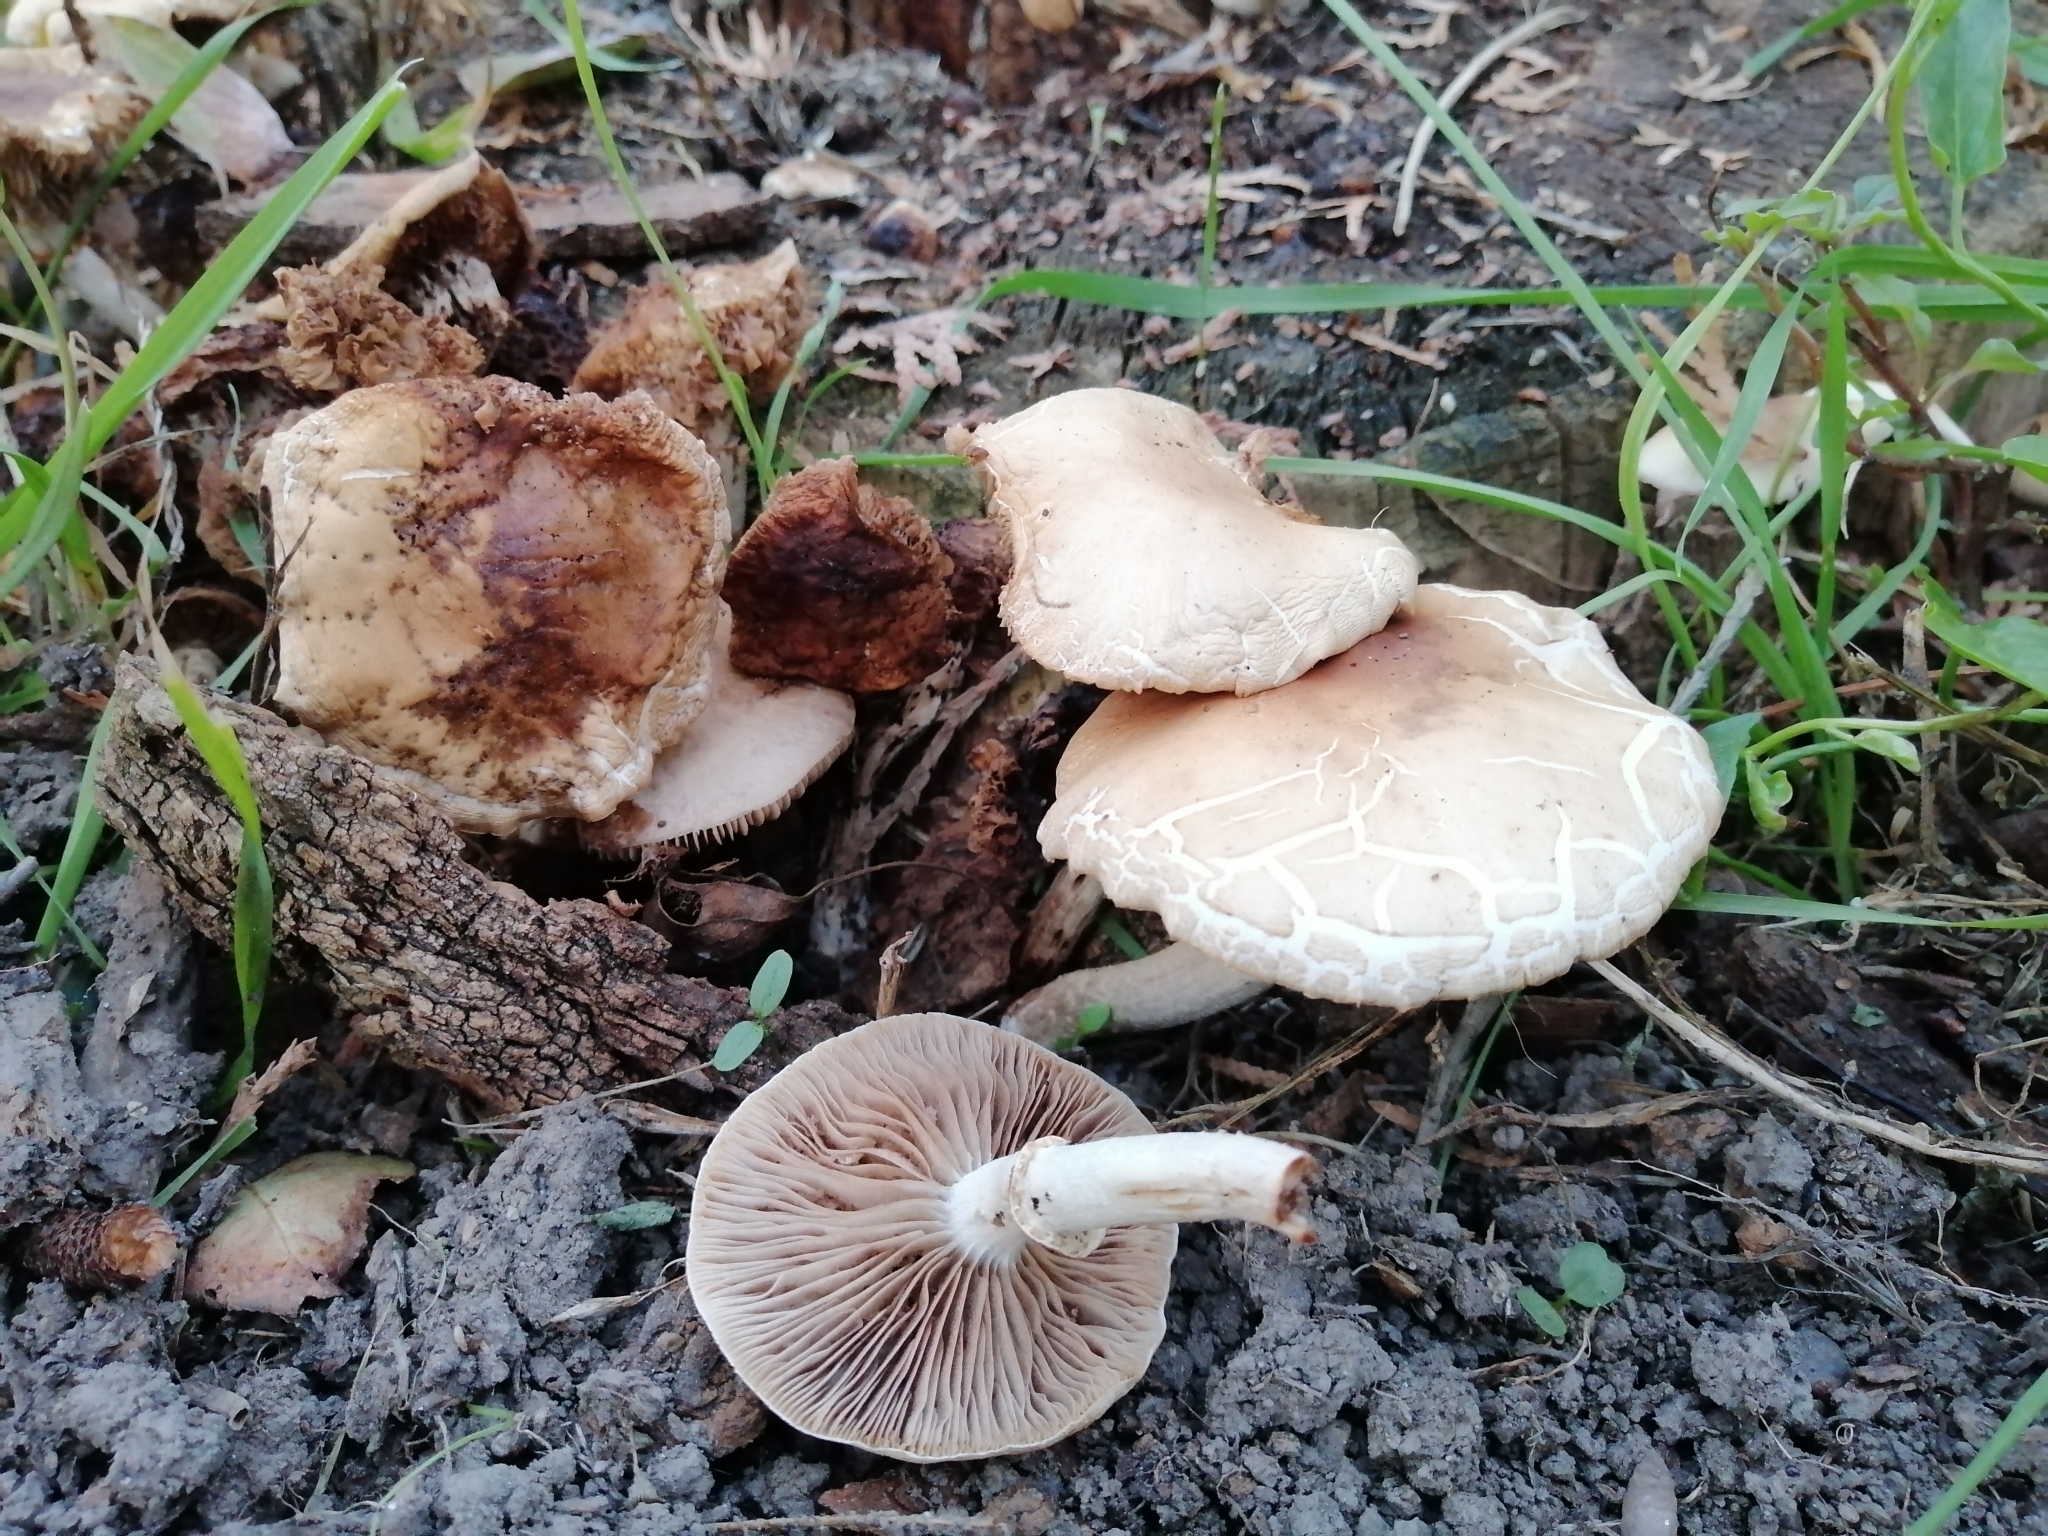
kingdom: Fungi
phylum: Basidiomycota
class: Agaricomycetes
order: Agaricales
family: Tubariaceae
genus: Cyclocybe
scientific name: Cyclocybe cylindracea
